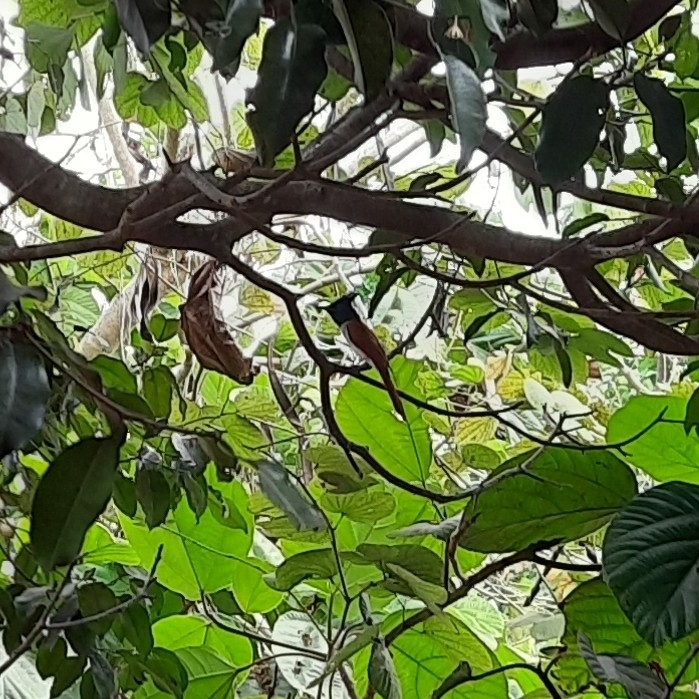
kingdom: Animalia
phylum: Chordata
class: Aves
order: Passeriformes
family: Monarchidae
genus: Terpsiphone
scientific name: Terpsiphone paradisi
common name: Indian paradise flycatcher
